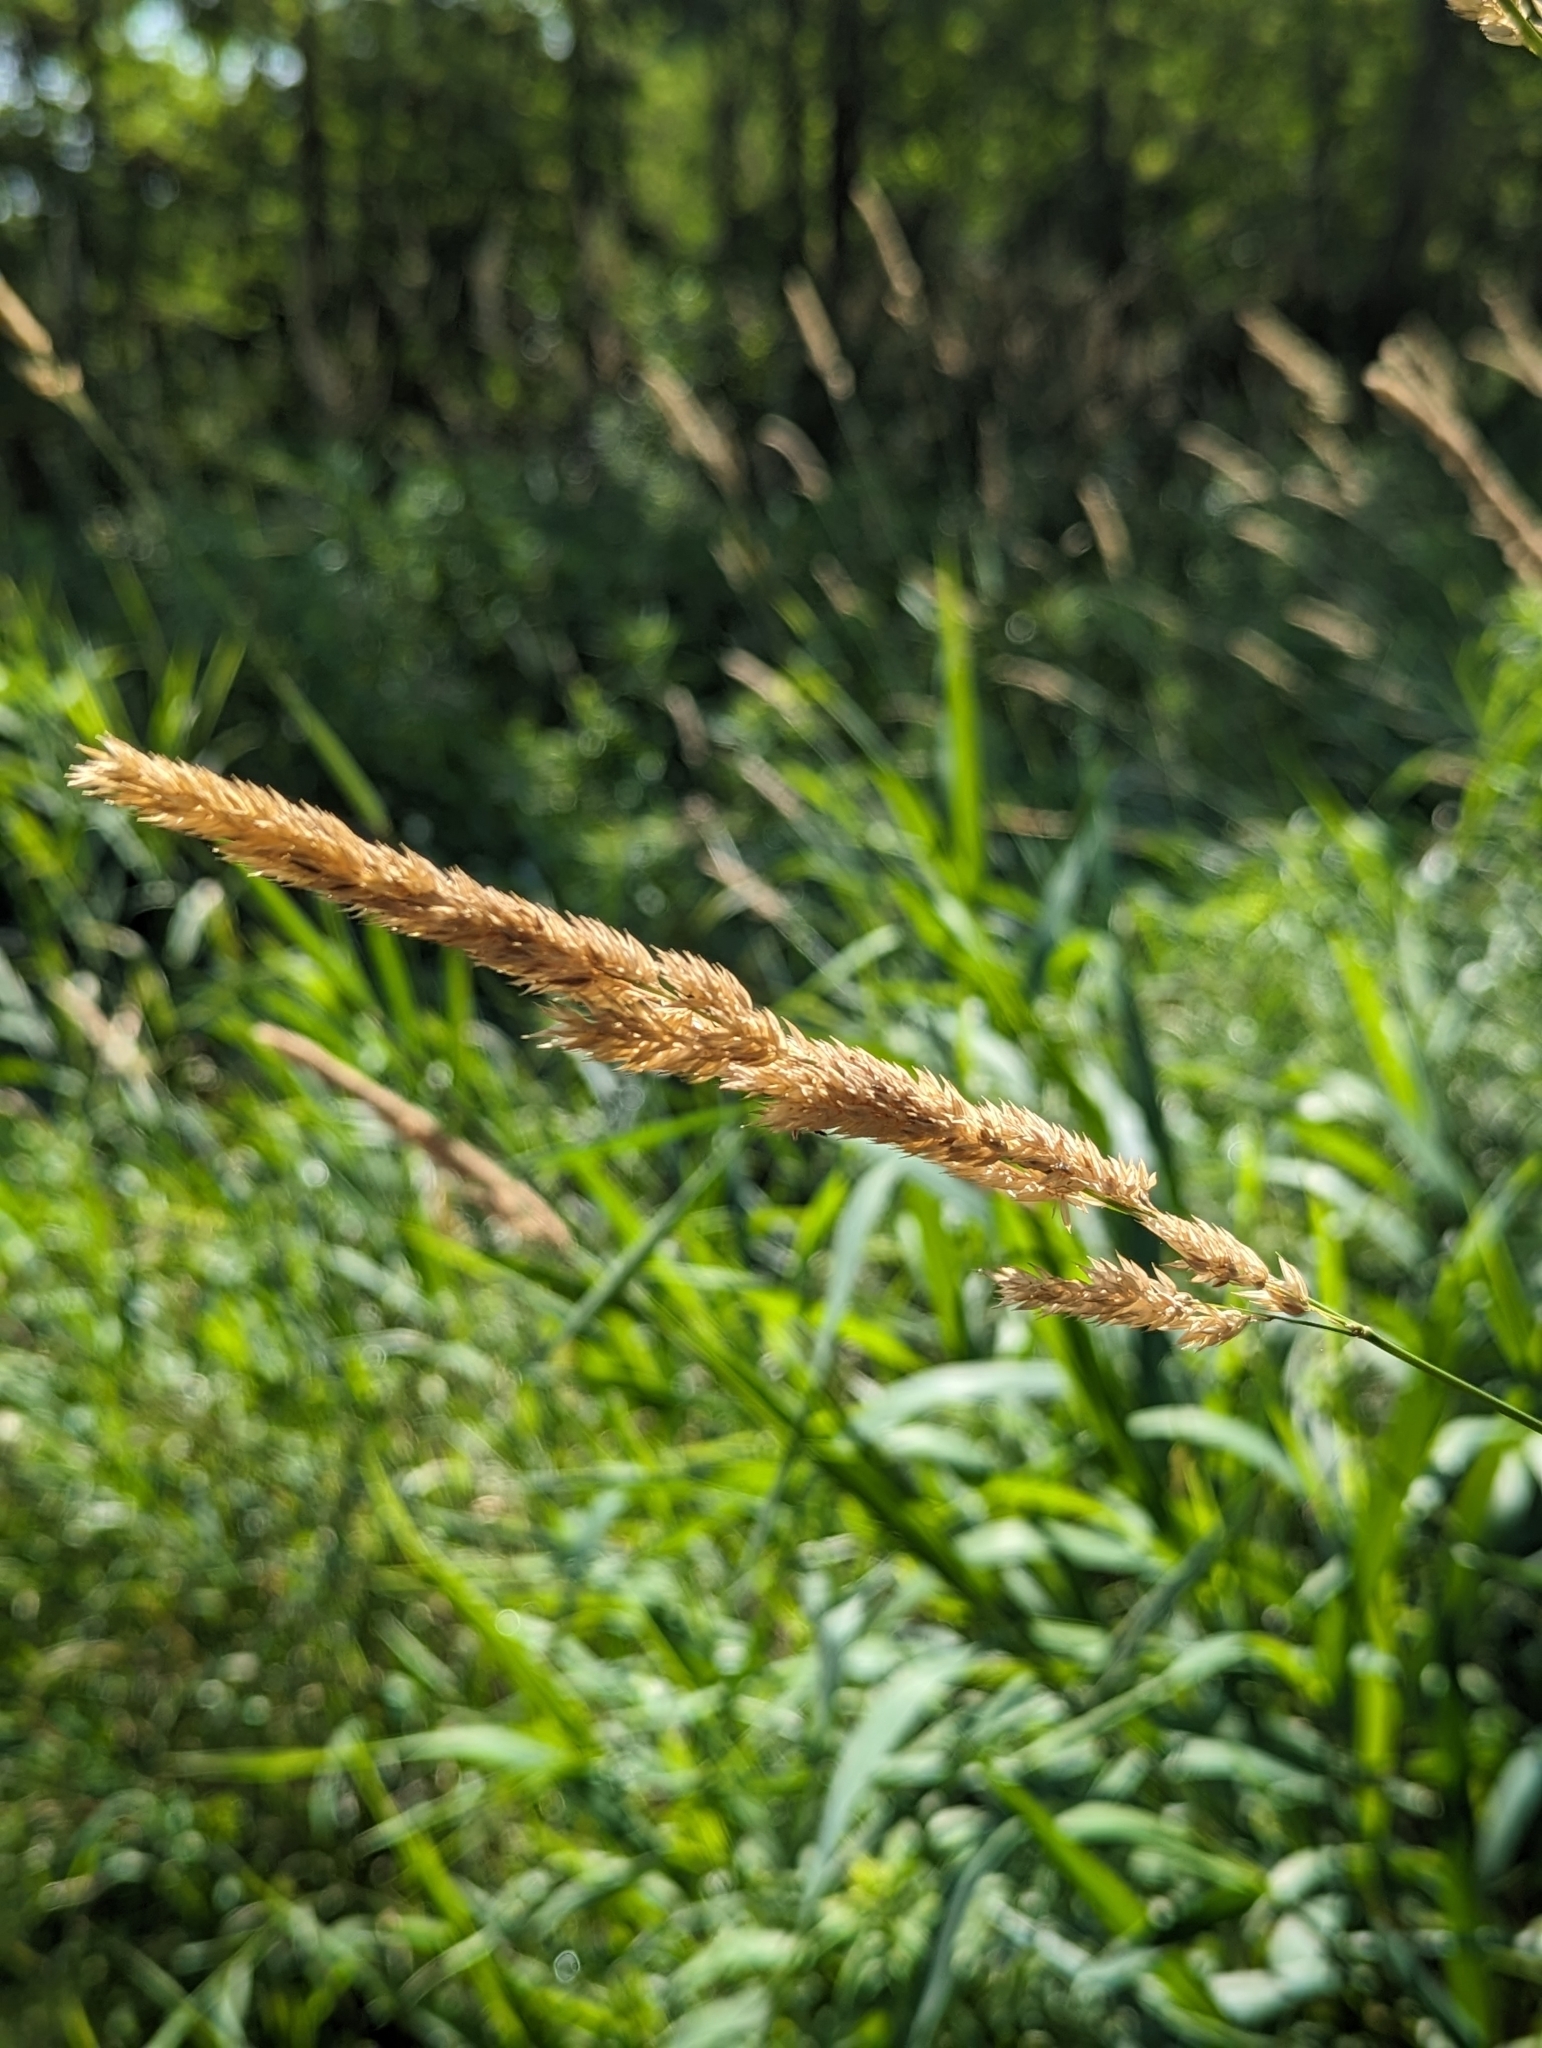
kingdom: Plantae
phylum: Tracheophyta
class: Liliopsida
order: Poales
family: Poaceae
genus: Phalaris
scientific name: Phalaris arundinacea
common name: Reed canary-grass
